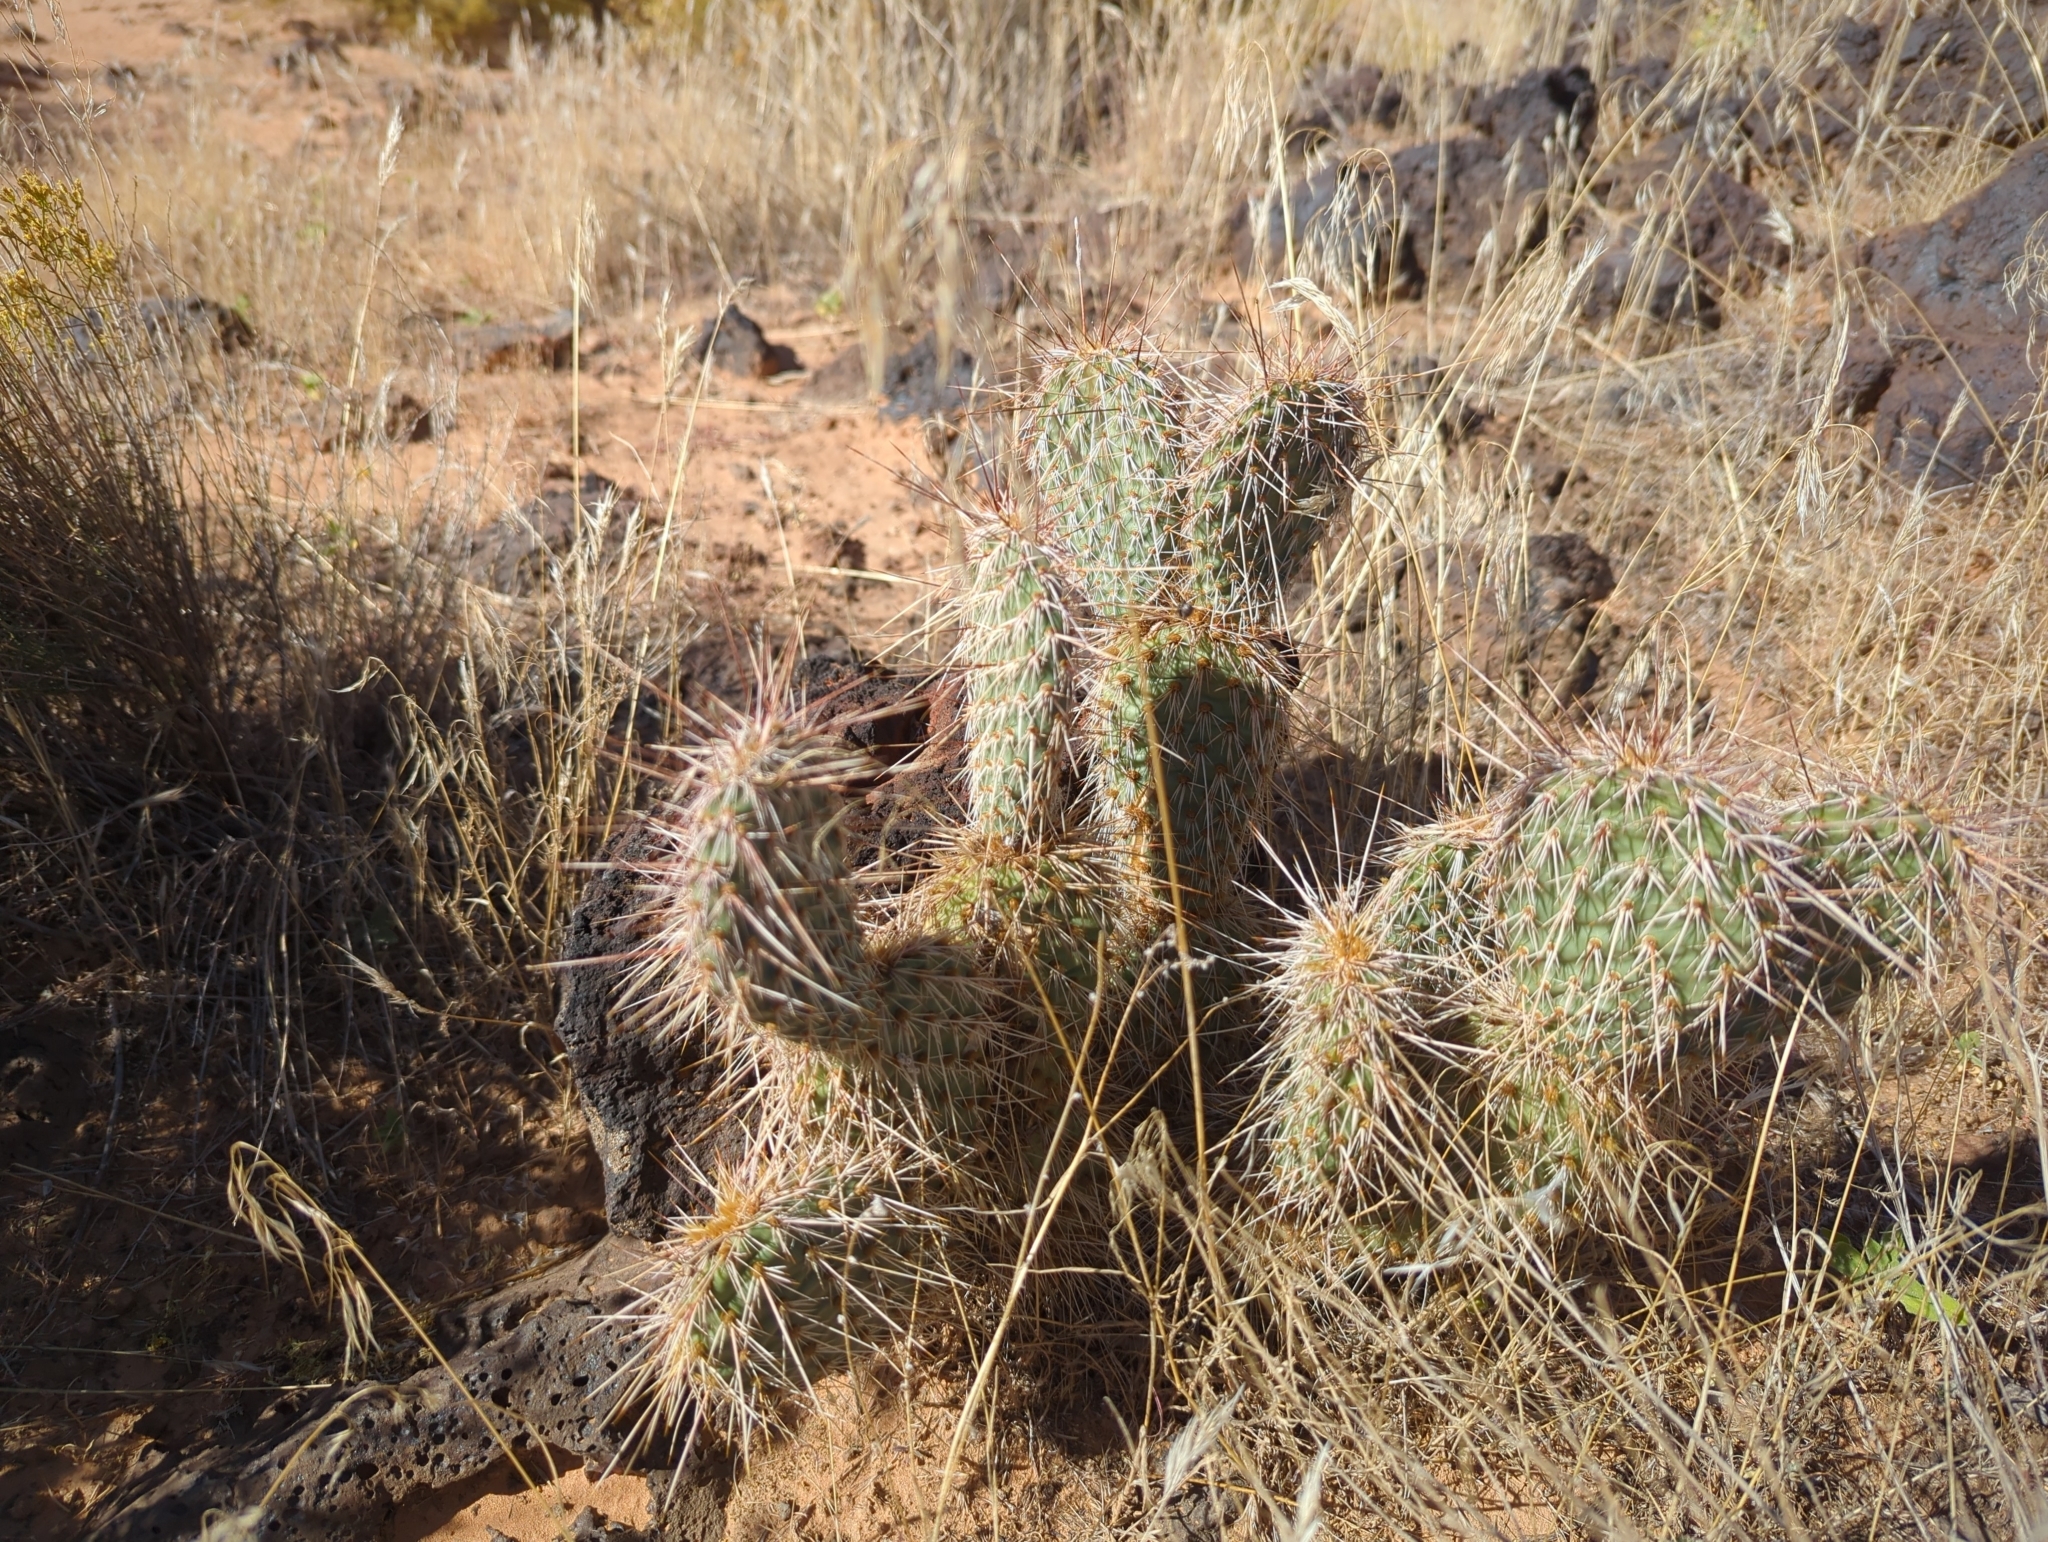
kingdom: Plantae
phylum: Tracheophyta
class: Magnoliopsida
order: Caryophyllales
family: Cactaceae
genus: Opuntia
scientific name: Opuntia polyacantha
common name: Plains prickly-pear
